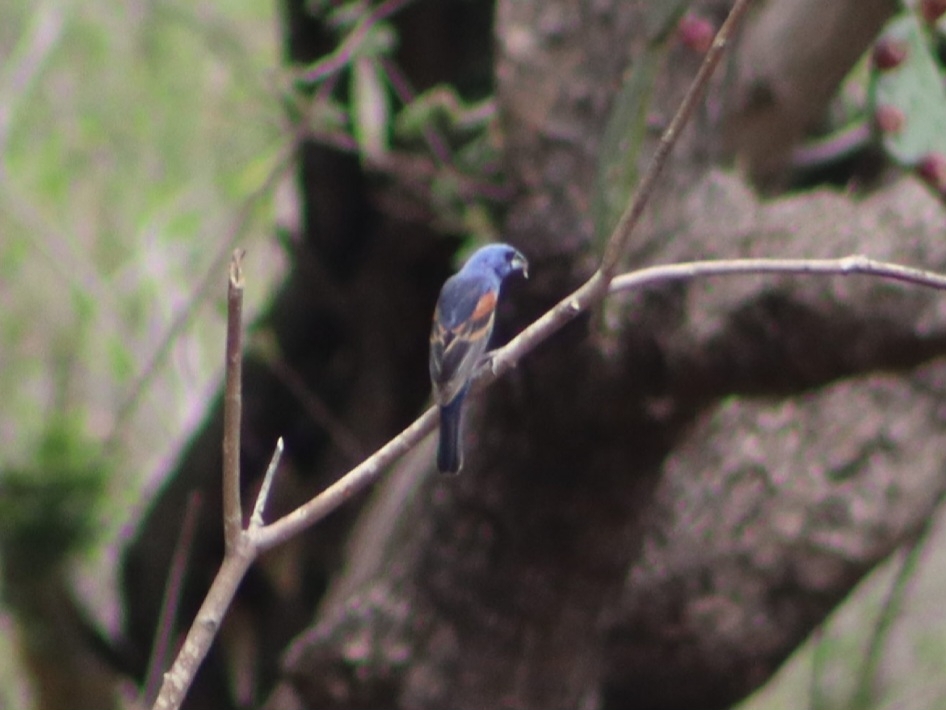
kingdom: Animalia
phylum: Chordata
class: Aves
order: Passeriformes
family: Cardinalidae
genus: Passerina
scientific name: Passerina caerulea
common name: Blue grosbeak
